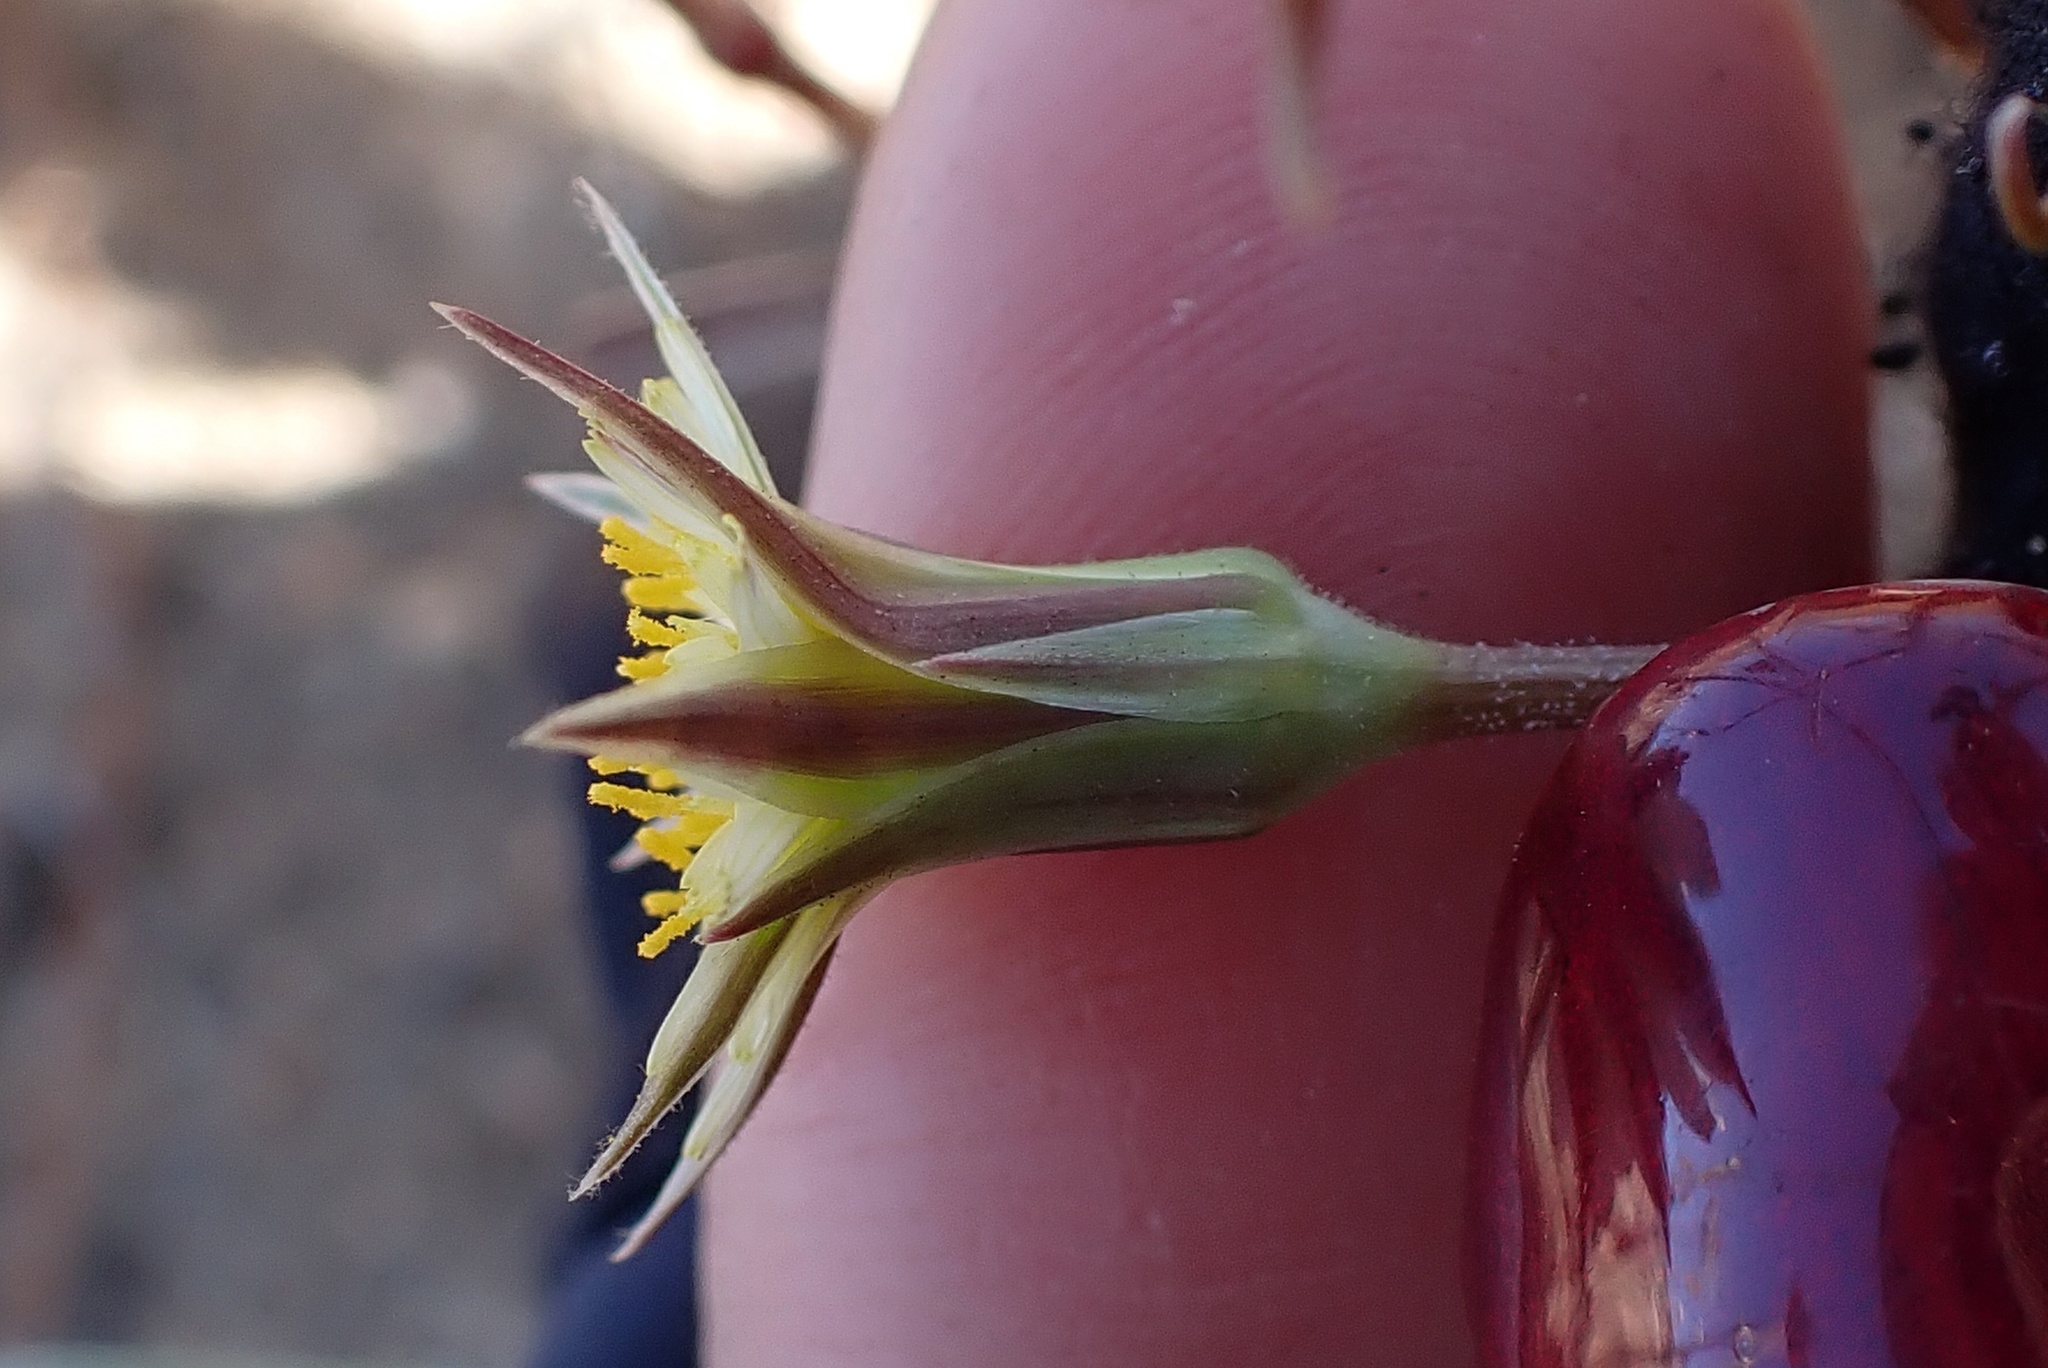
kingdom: Plantae
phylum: Tracheophyta
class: Magnoliopsida
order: Asterales
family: Asteraceae
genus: Microseris
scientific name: Microseris lindleyi
